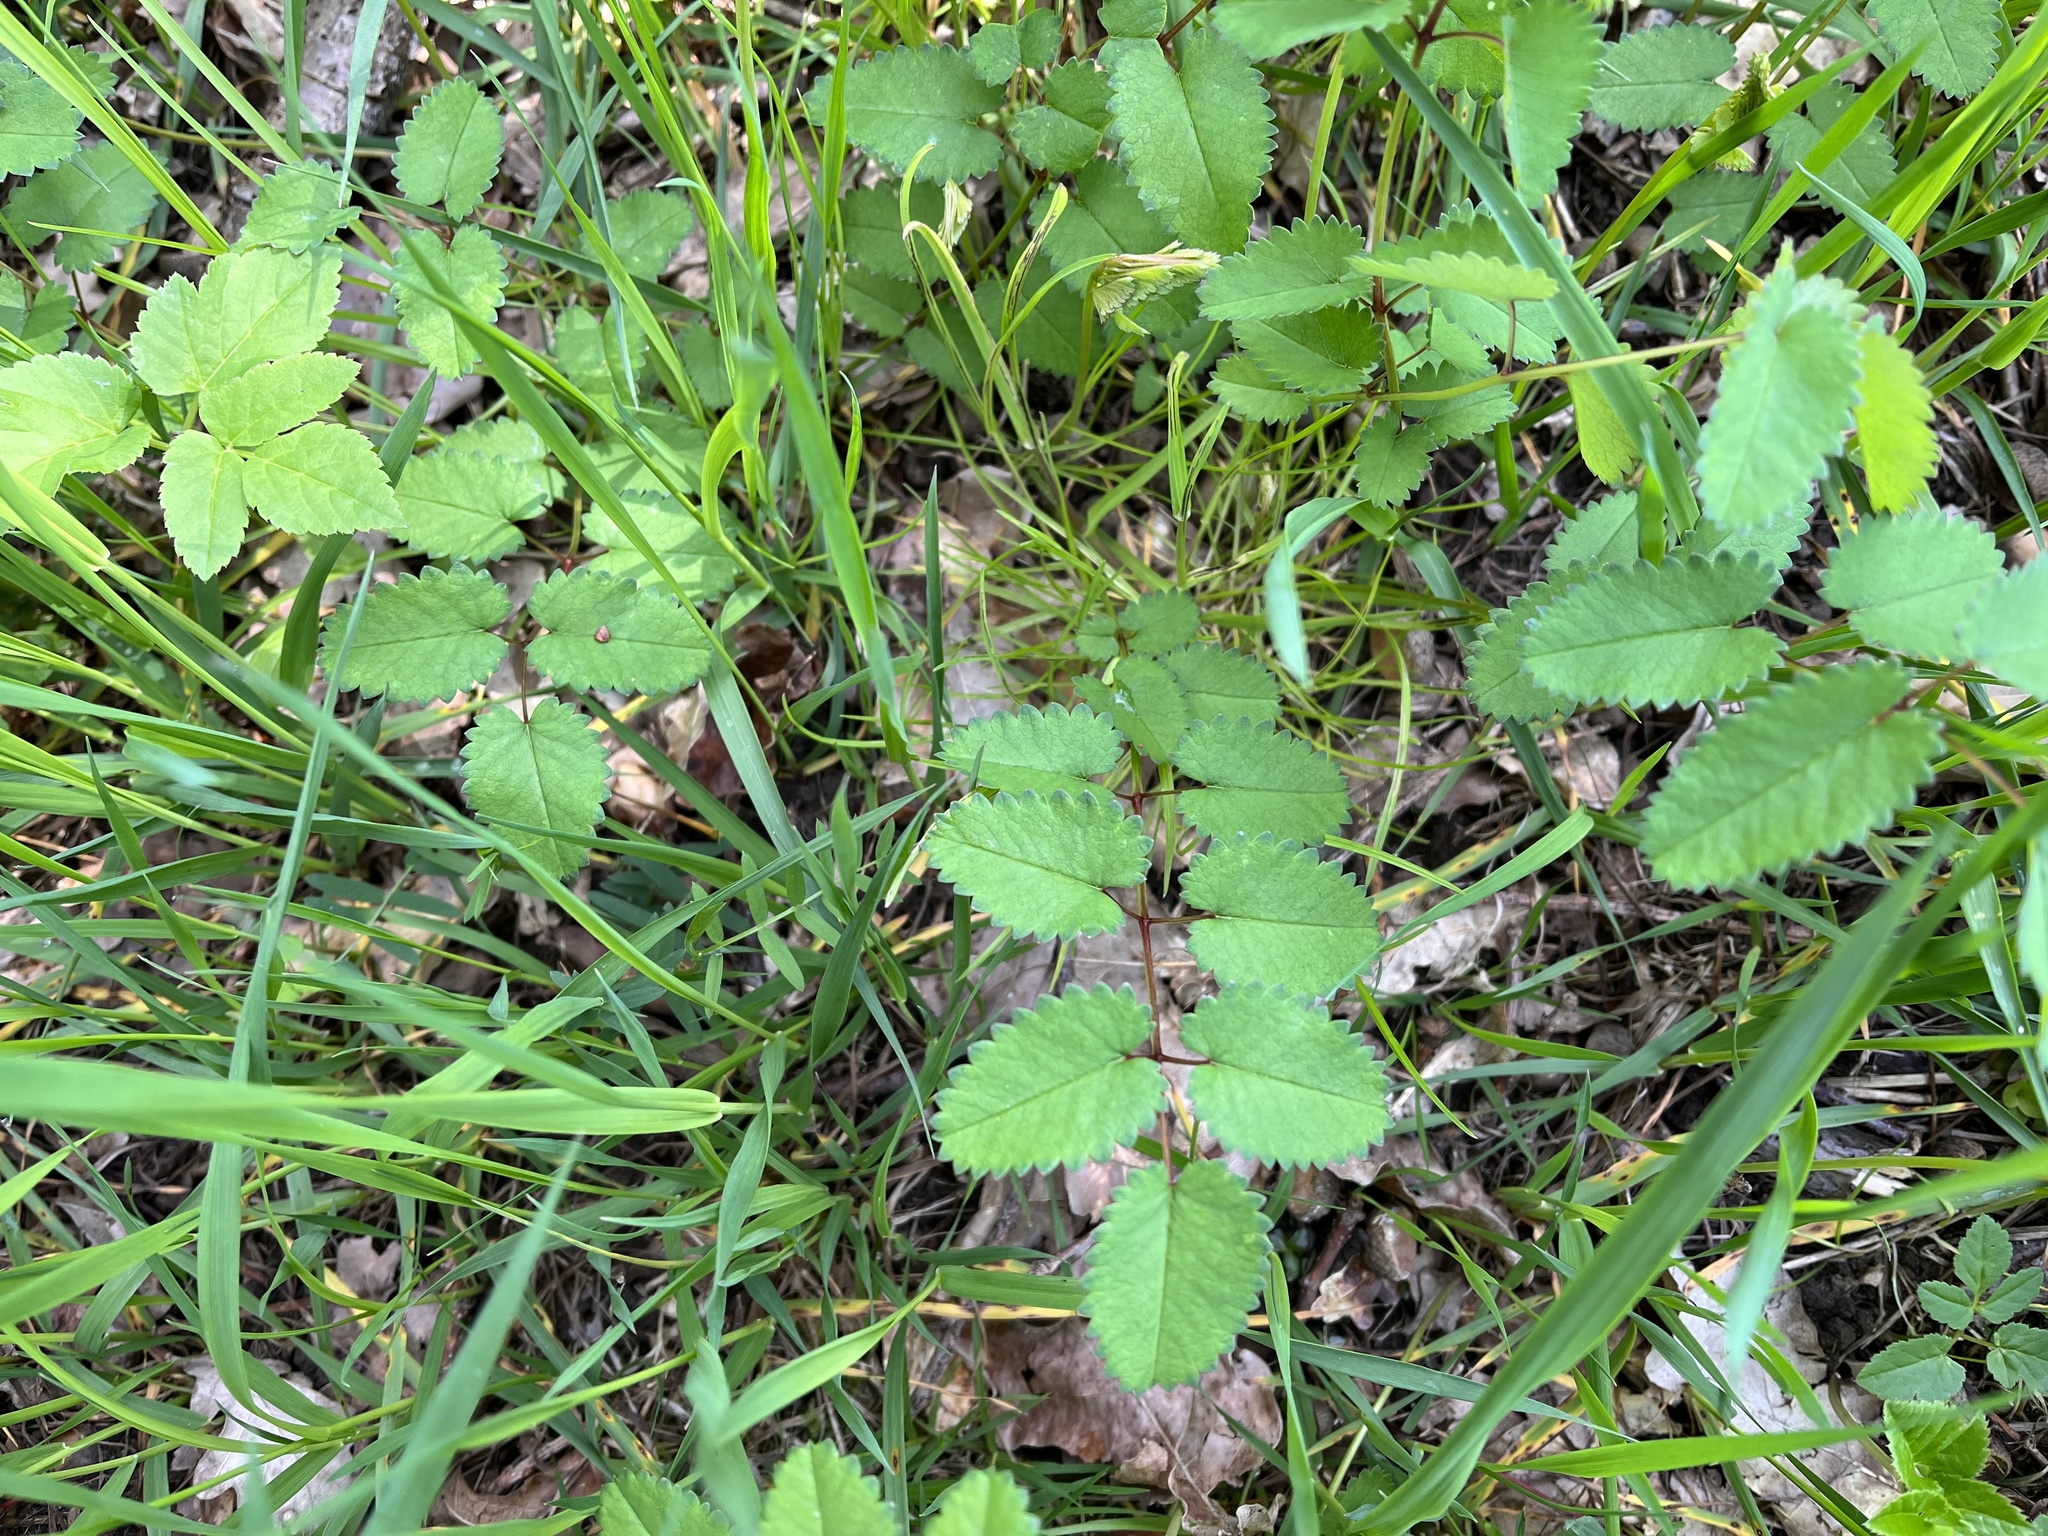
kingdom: Plantae
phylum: Tracheophyta
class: Magnoliopsida
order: Rosales
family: Rosaceae
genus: Sanguisorba
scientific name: Sanguisorba officinalis
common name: Great burnet
